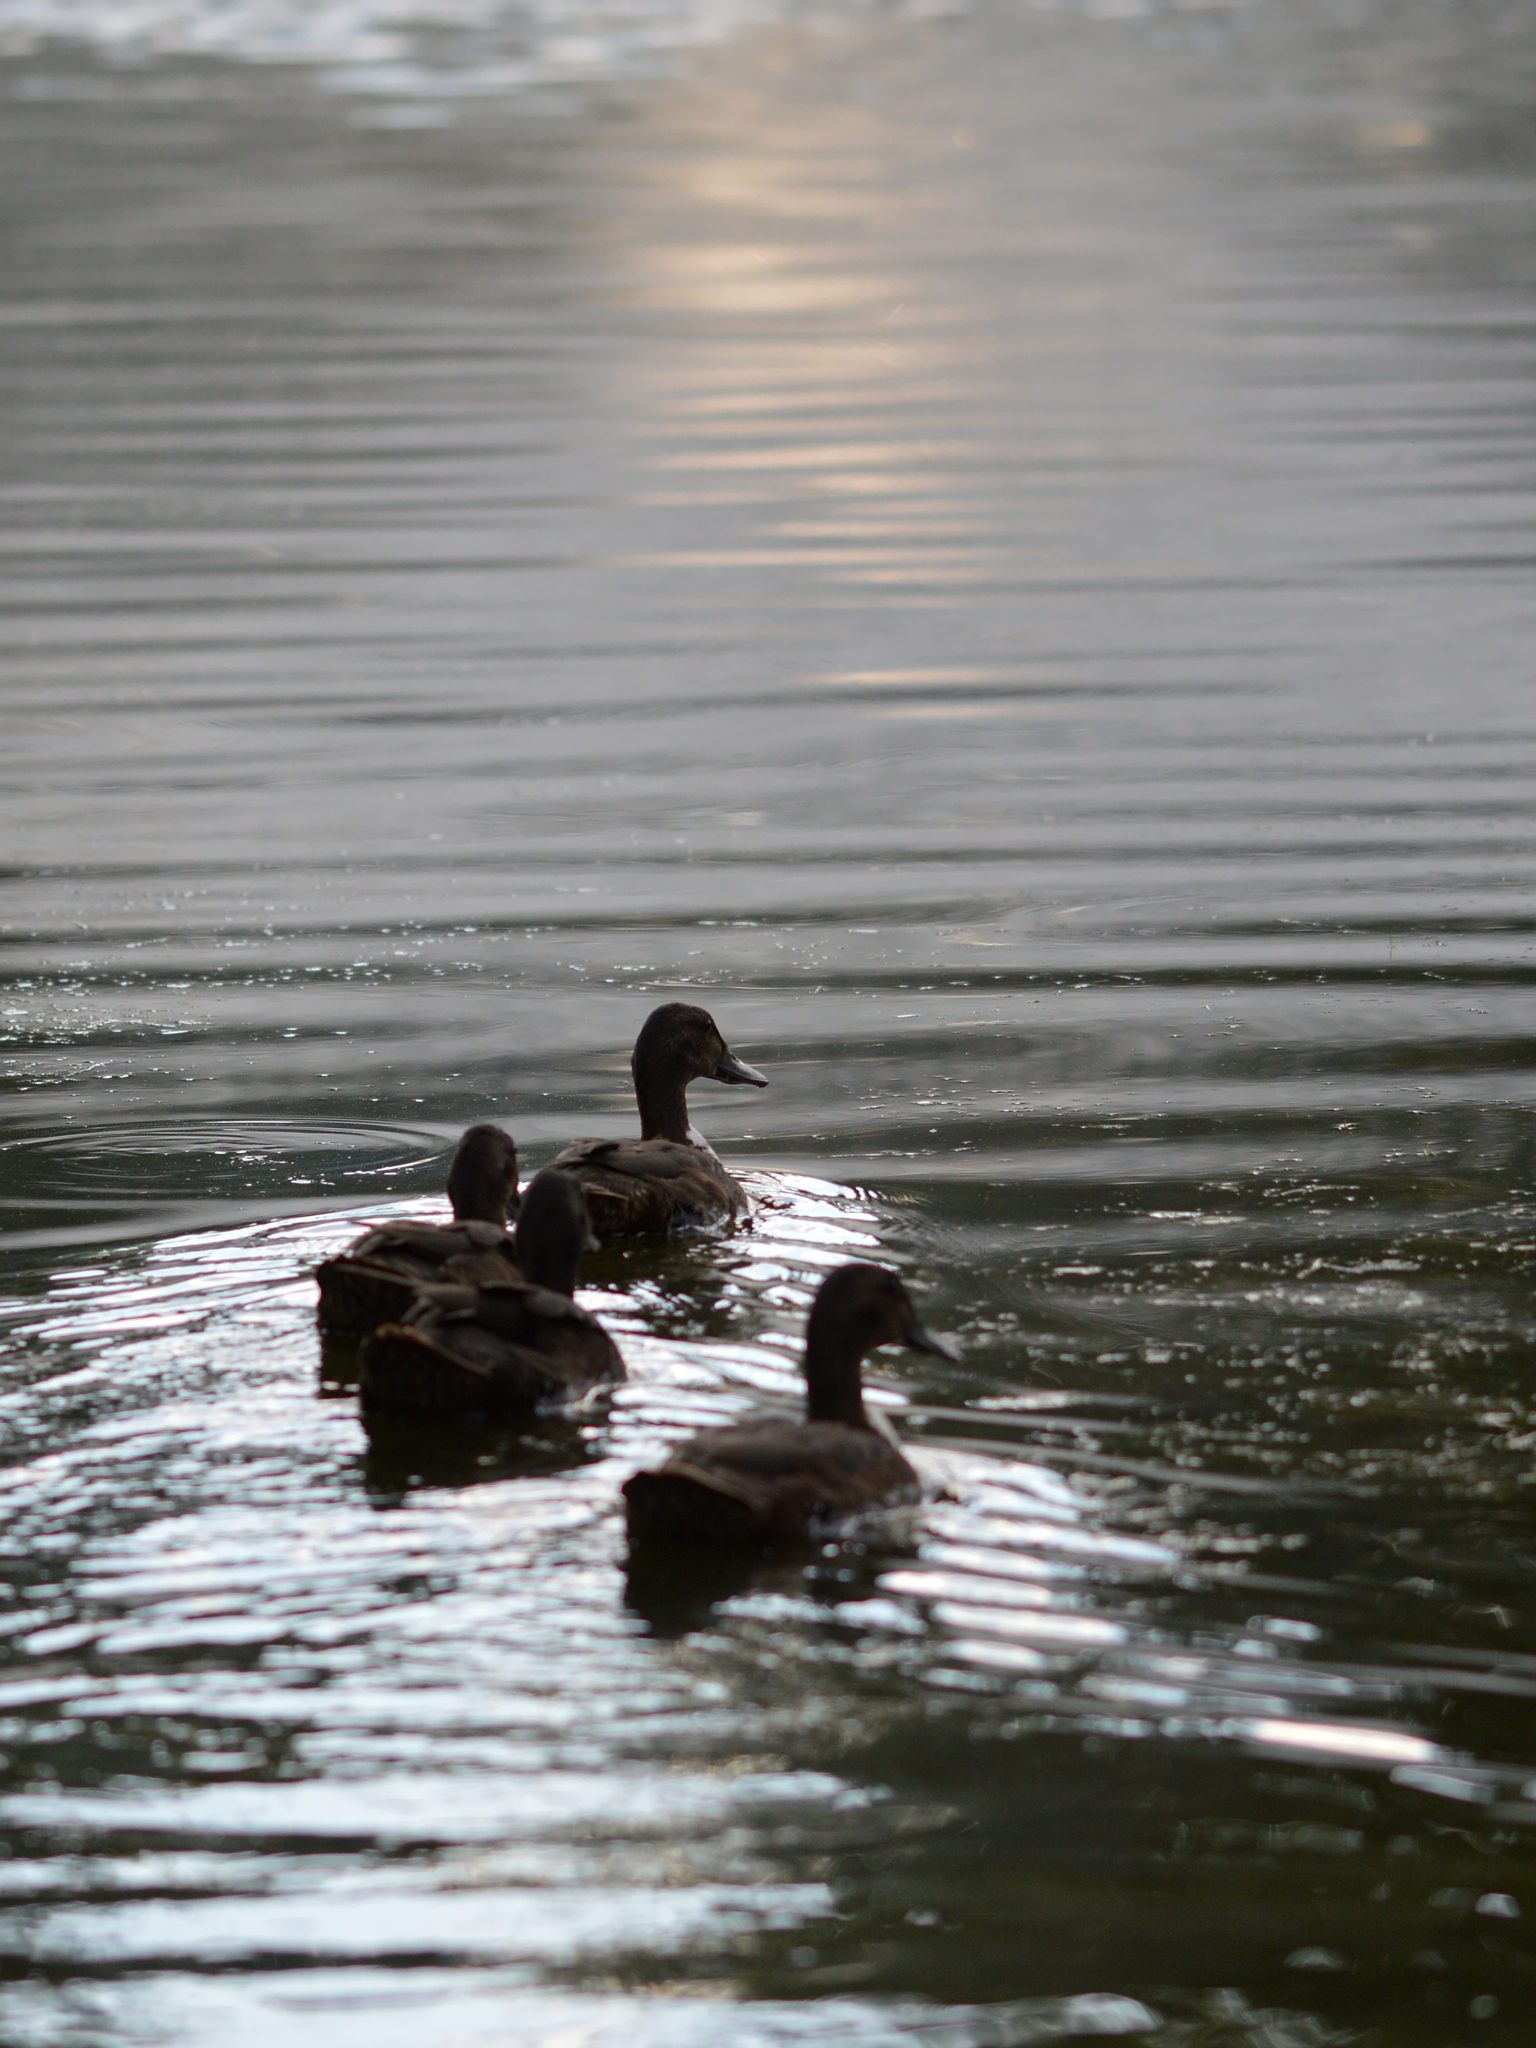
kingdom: Animalia
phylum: Chordata
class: Aves
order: Anseriformes
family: Anatidae
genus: Anas
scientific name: Anas platyrhynchos
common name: Mallard
